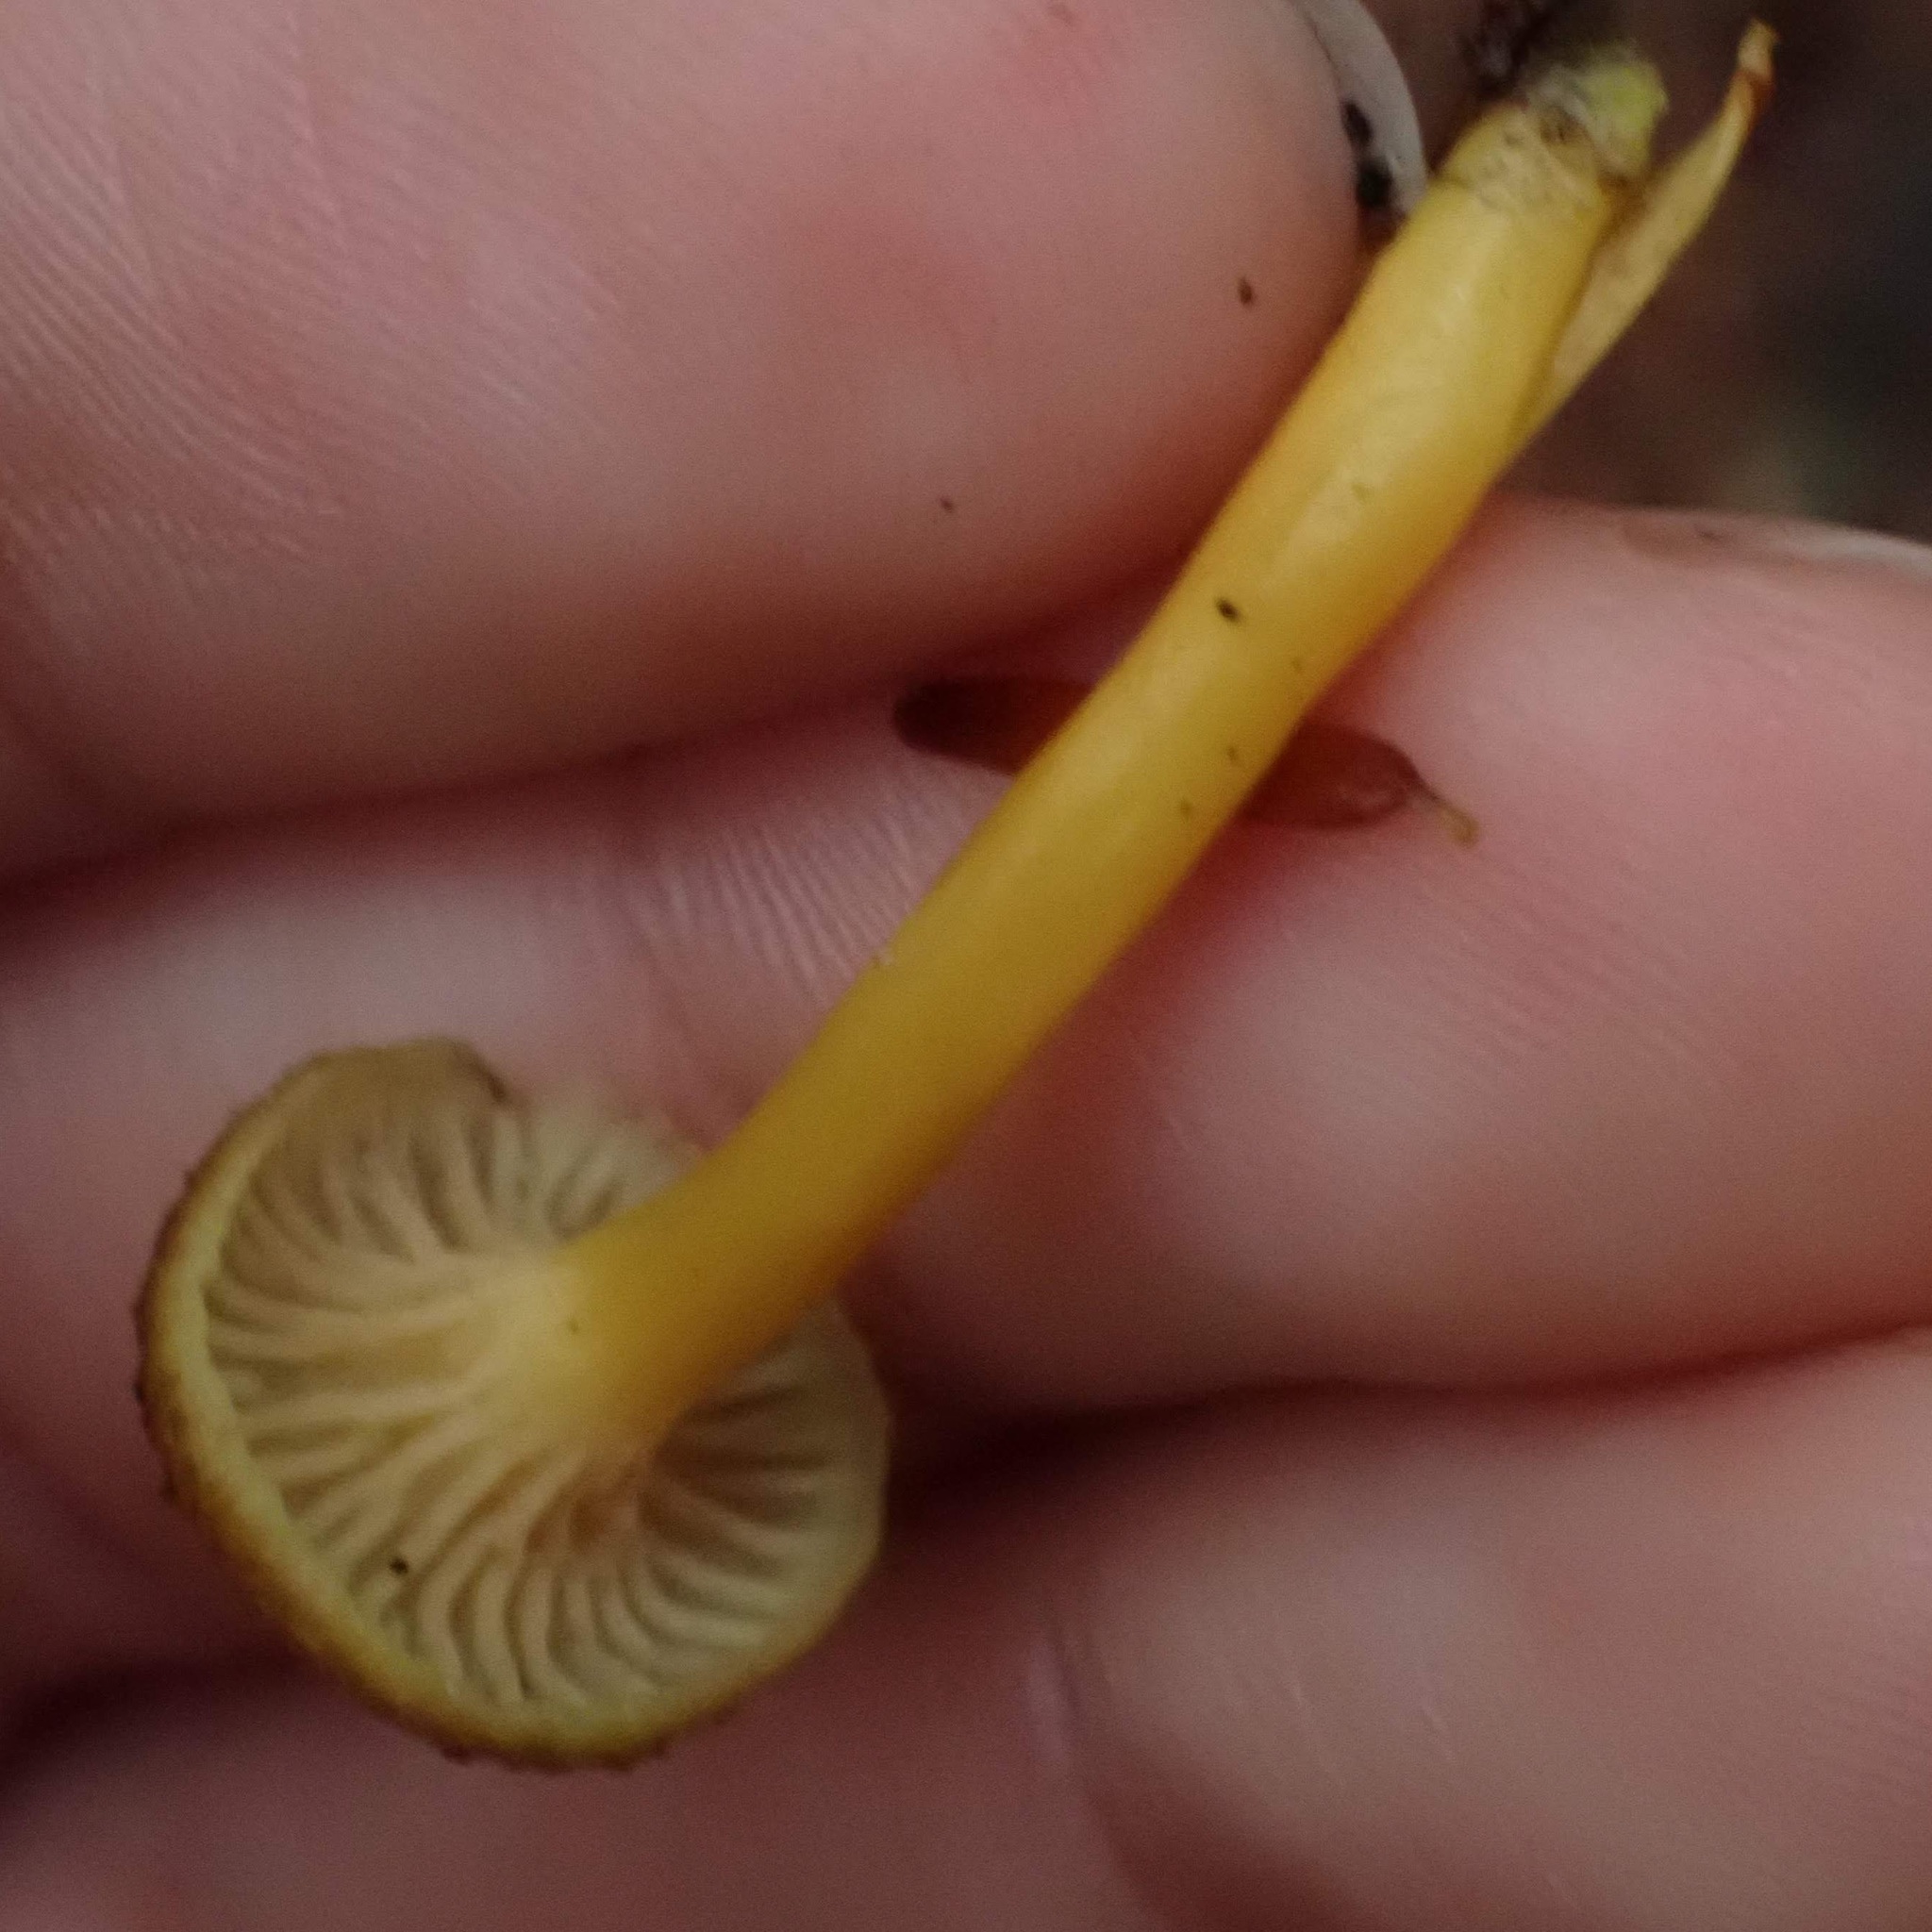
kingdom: Fungi
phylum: Basidiomycota
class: Agaricomycetes
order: Cantharellales
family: Hydnaceae
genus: Craterellus
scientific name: Craterellus tubaeformis
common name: Yellowfoot
